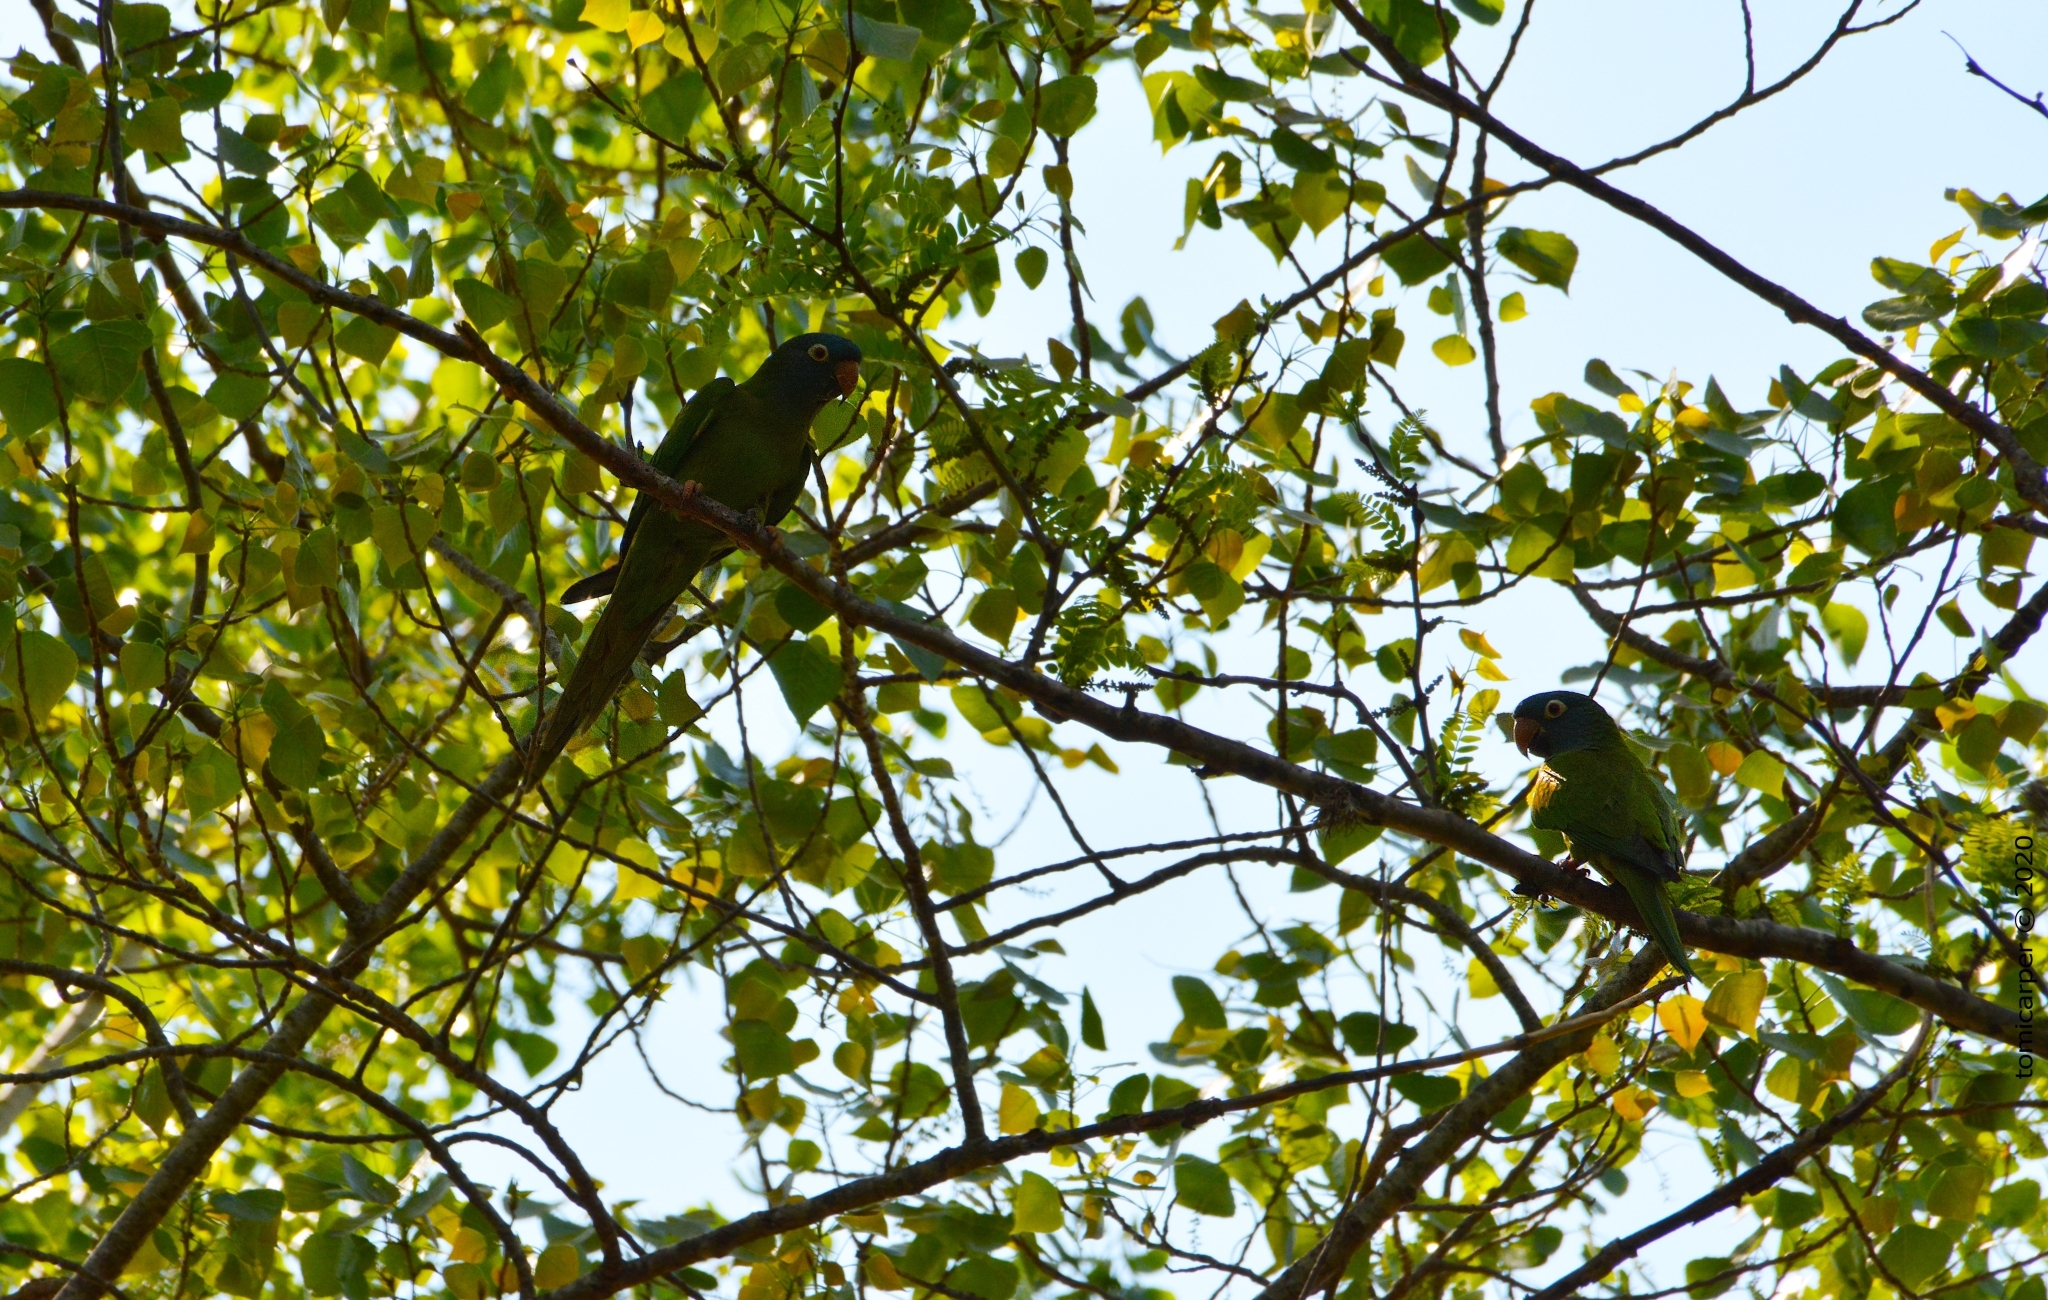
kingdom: Animalia
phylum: Chordata
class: Aves
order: Psittaciformes
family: Psittacidae
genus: Aratinga
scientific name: Aratinga acuticaudata
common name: Blue-crowned parakeet
